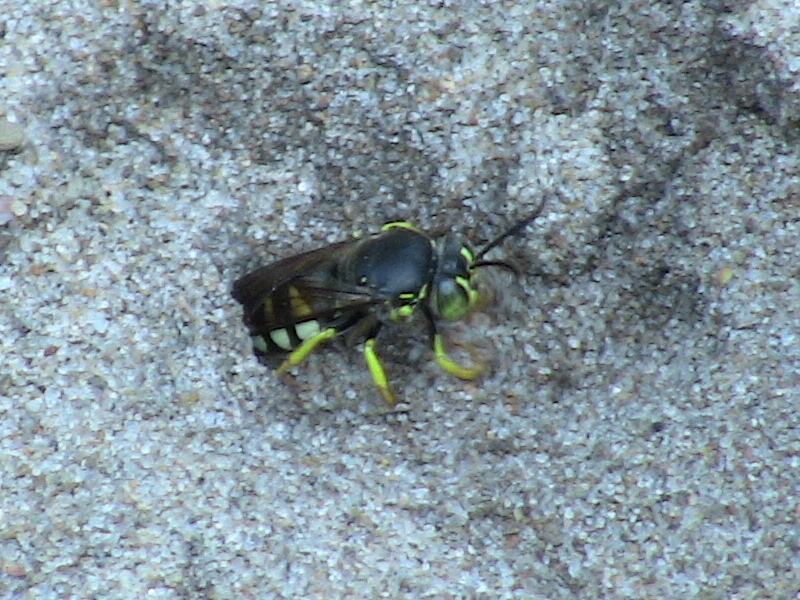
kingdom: Animalia
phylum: Arthropoda
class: Insecta
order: Hymenoptera
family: Crabronidae
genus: Bicyrtes
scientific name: Bicyrtes quadrifasciatus
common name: Four-banded stink bug hunter wasp
